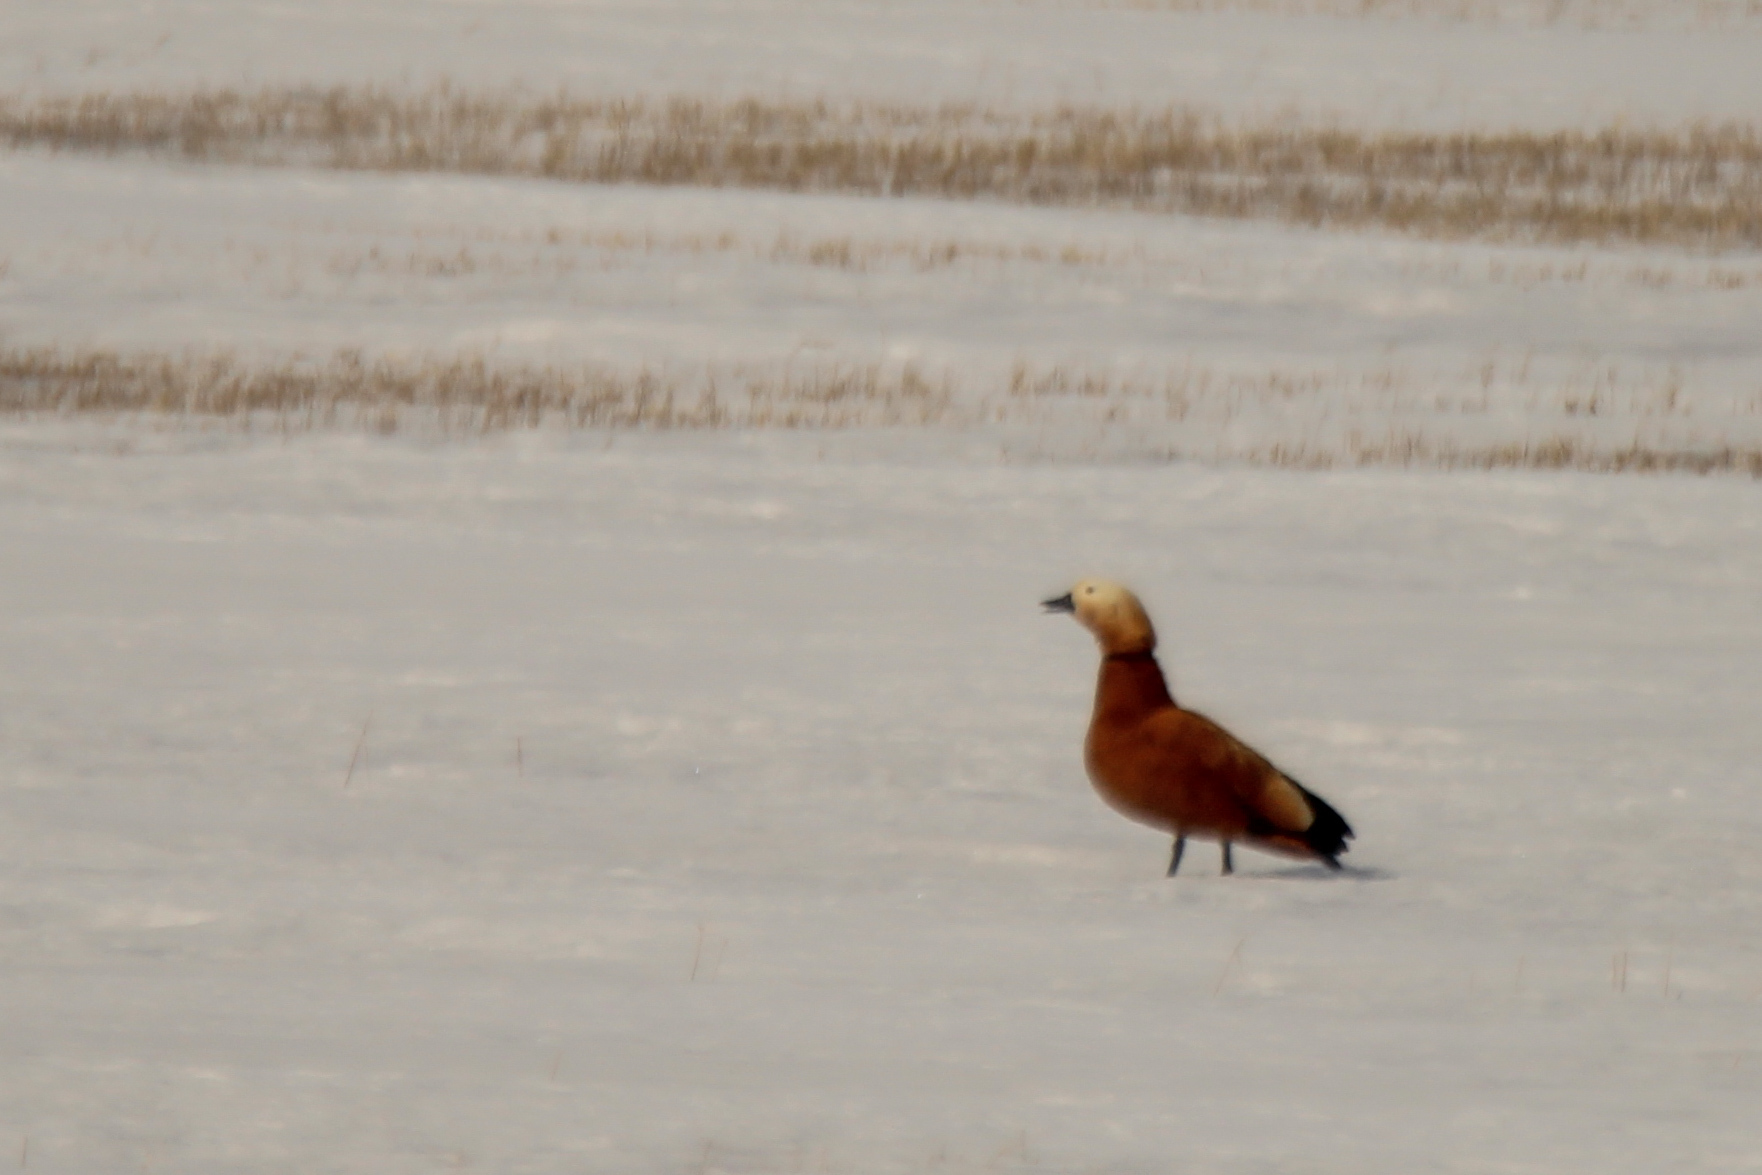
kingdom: Animalia
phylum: Chordata
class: Aves
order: Anseriformes
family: Anatidae
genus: Tadorna
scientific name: Tadorna ferruginea
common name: Ruddy shelduck
